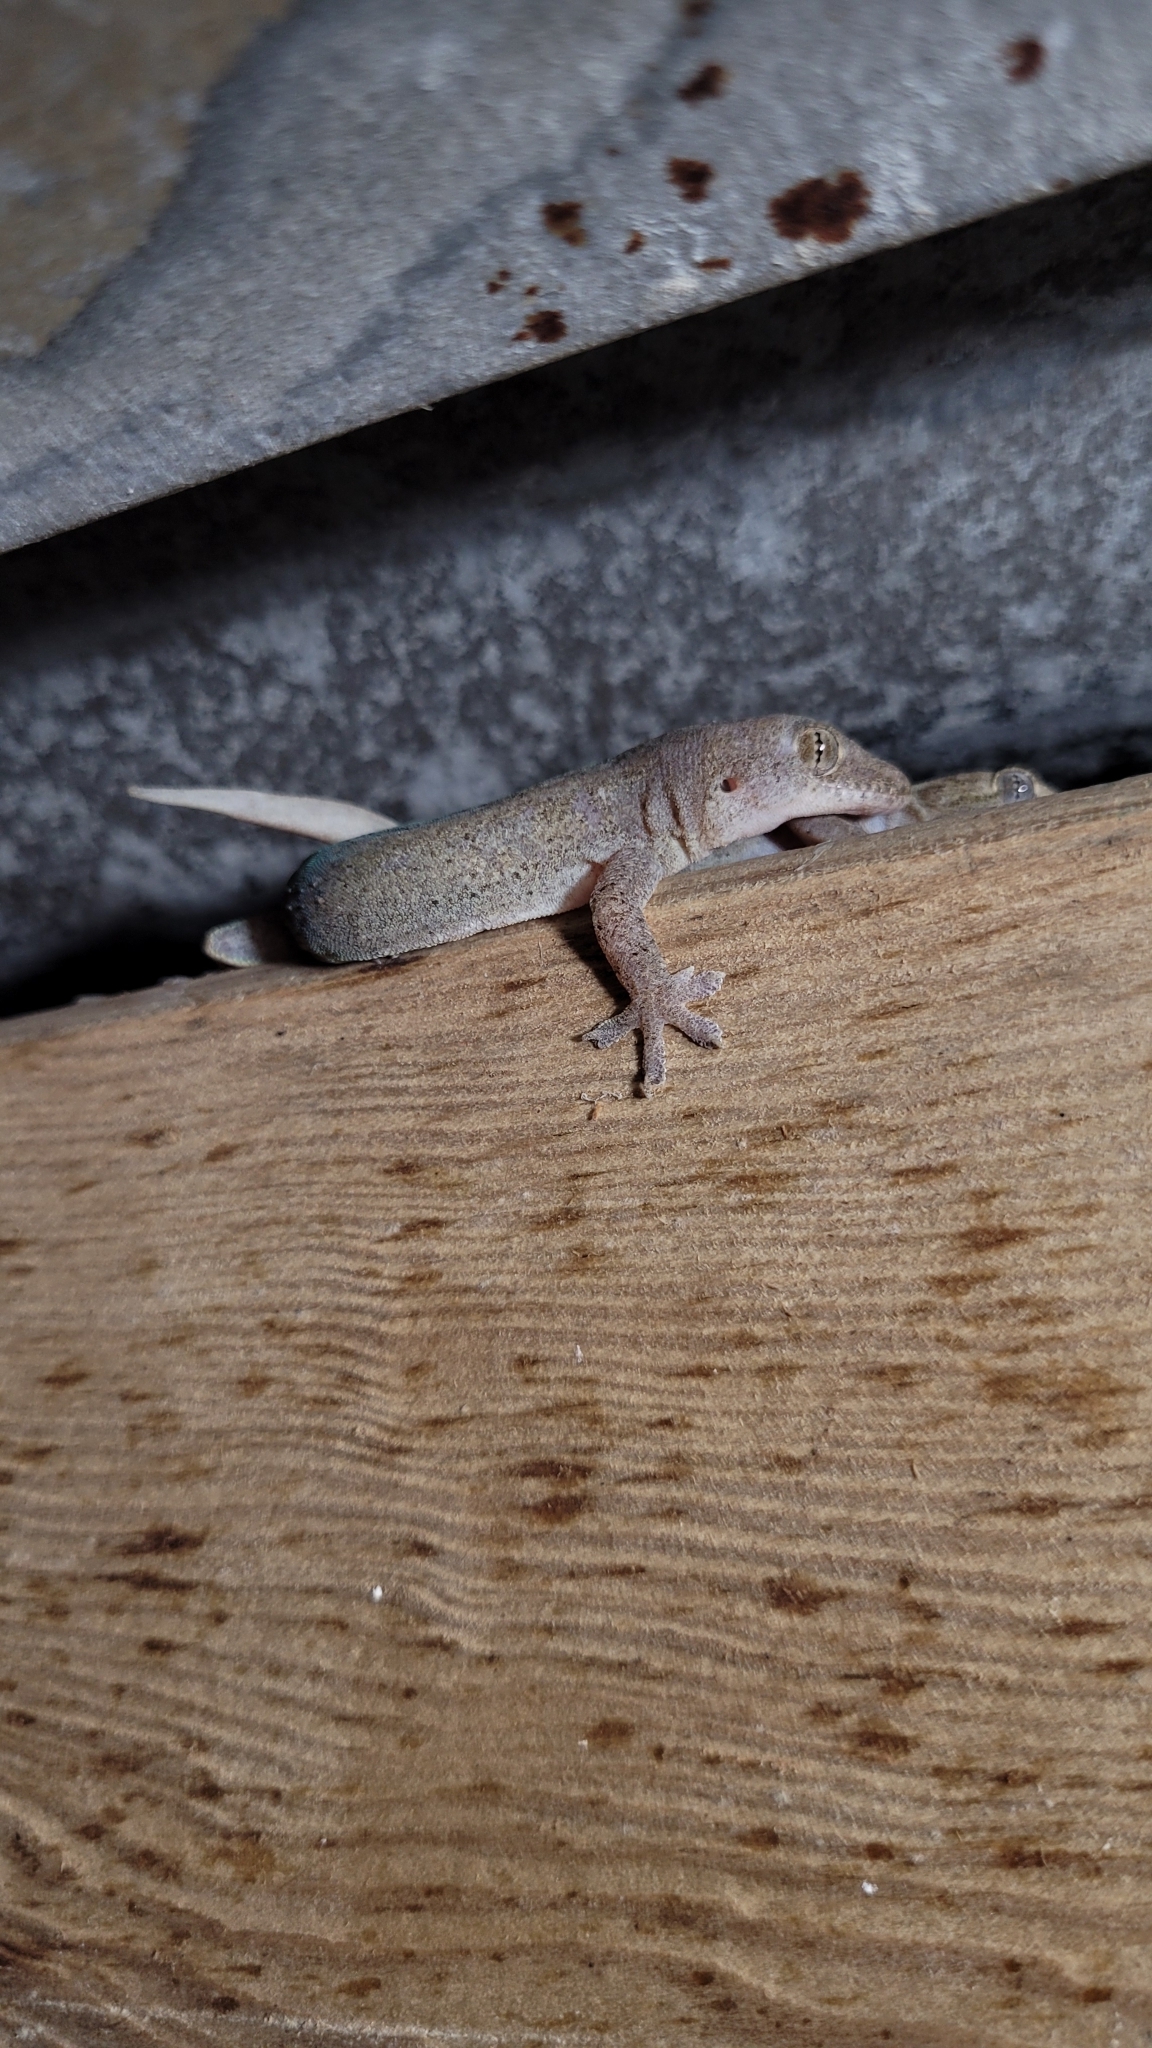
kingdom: Animalia
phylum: Chordata
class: Squamata
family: Gekkonidae
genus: Hemidactylus
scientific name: Hemidactylus frenatus
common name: Common house gecko
